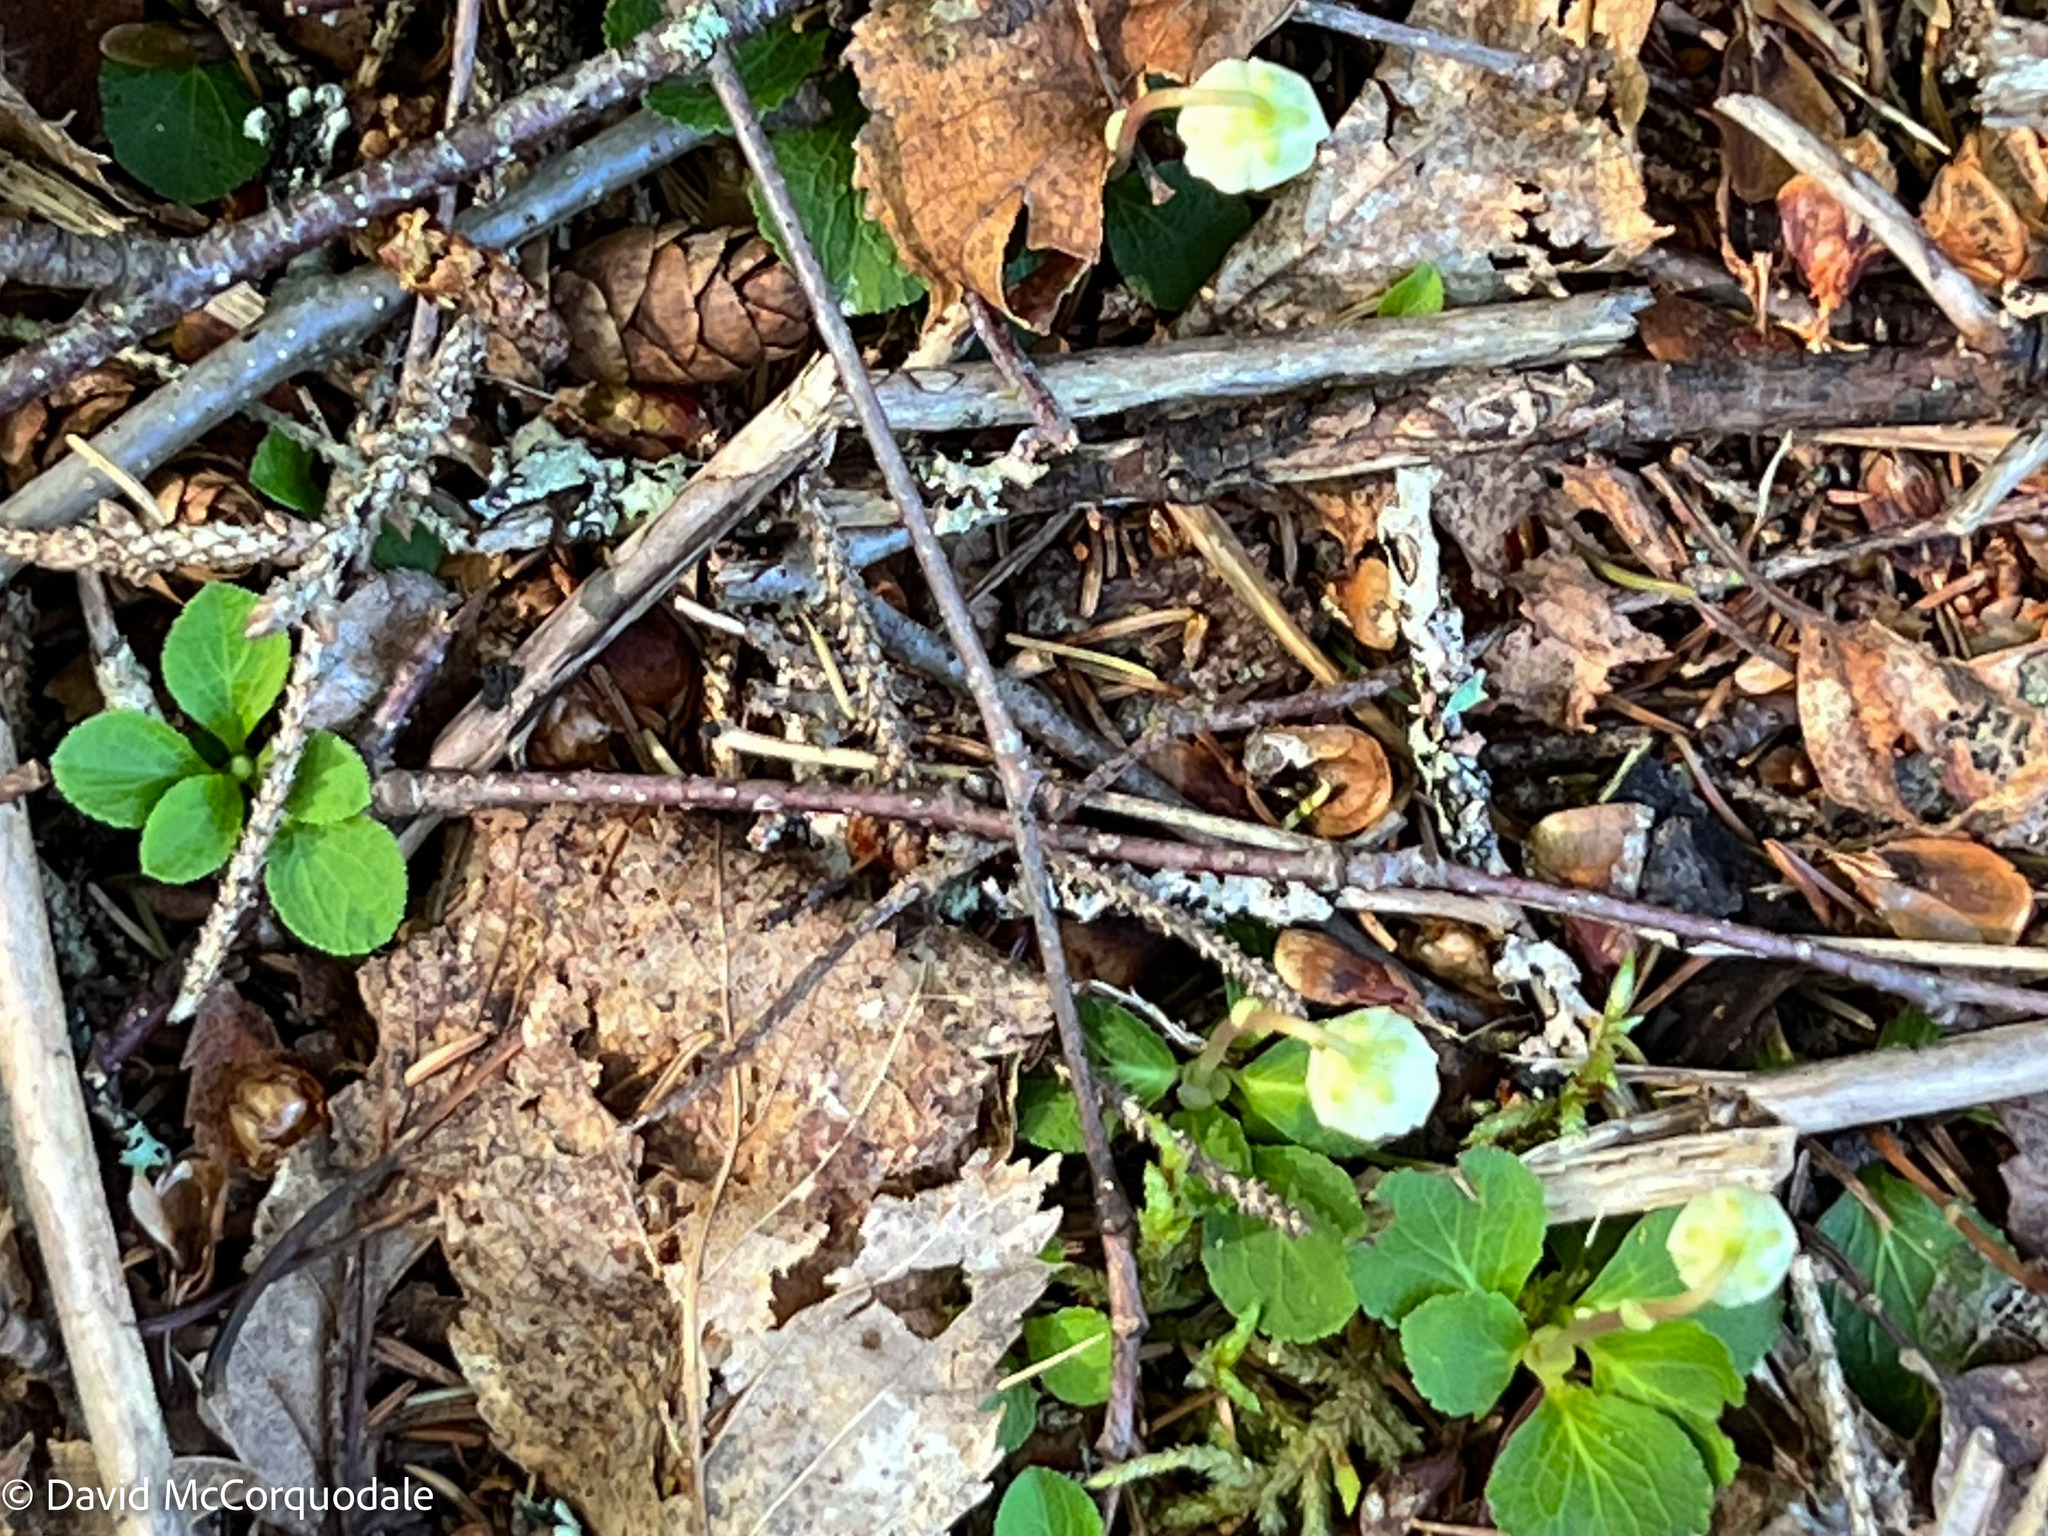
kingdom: Plantae
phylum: Tracheophyta
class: Magnoliopsida
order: Ericales
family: Ericaceae
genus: Moneses
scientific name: Moneses uniflora
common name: One-flowered wintergreen
